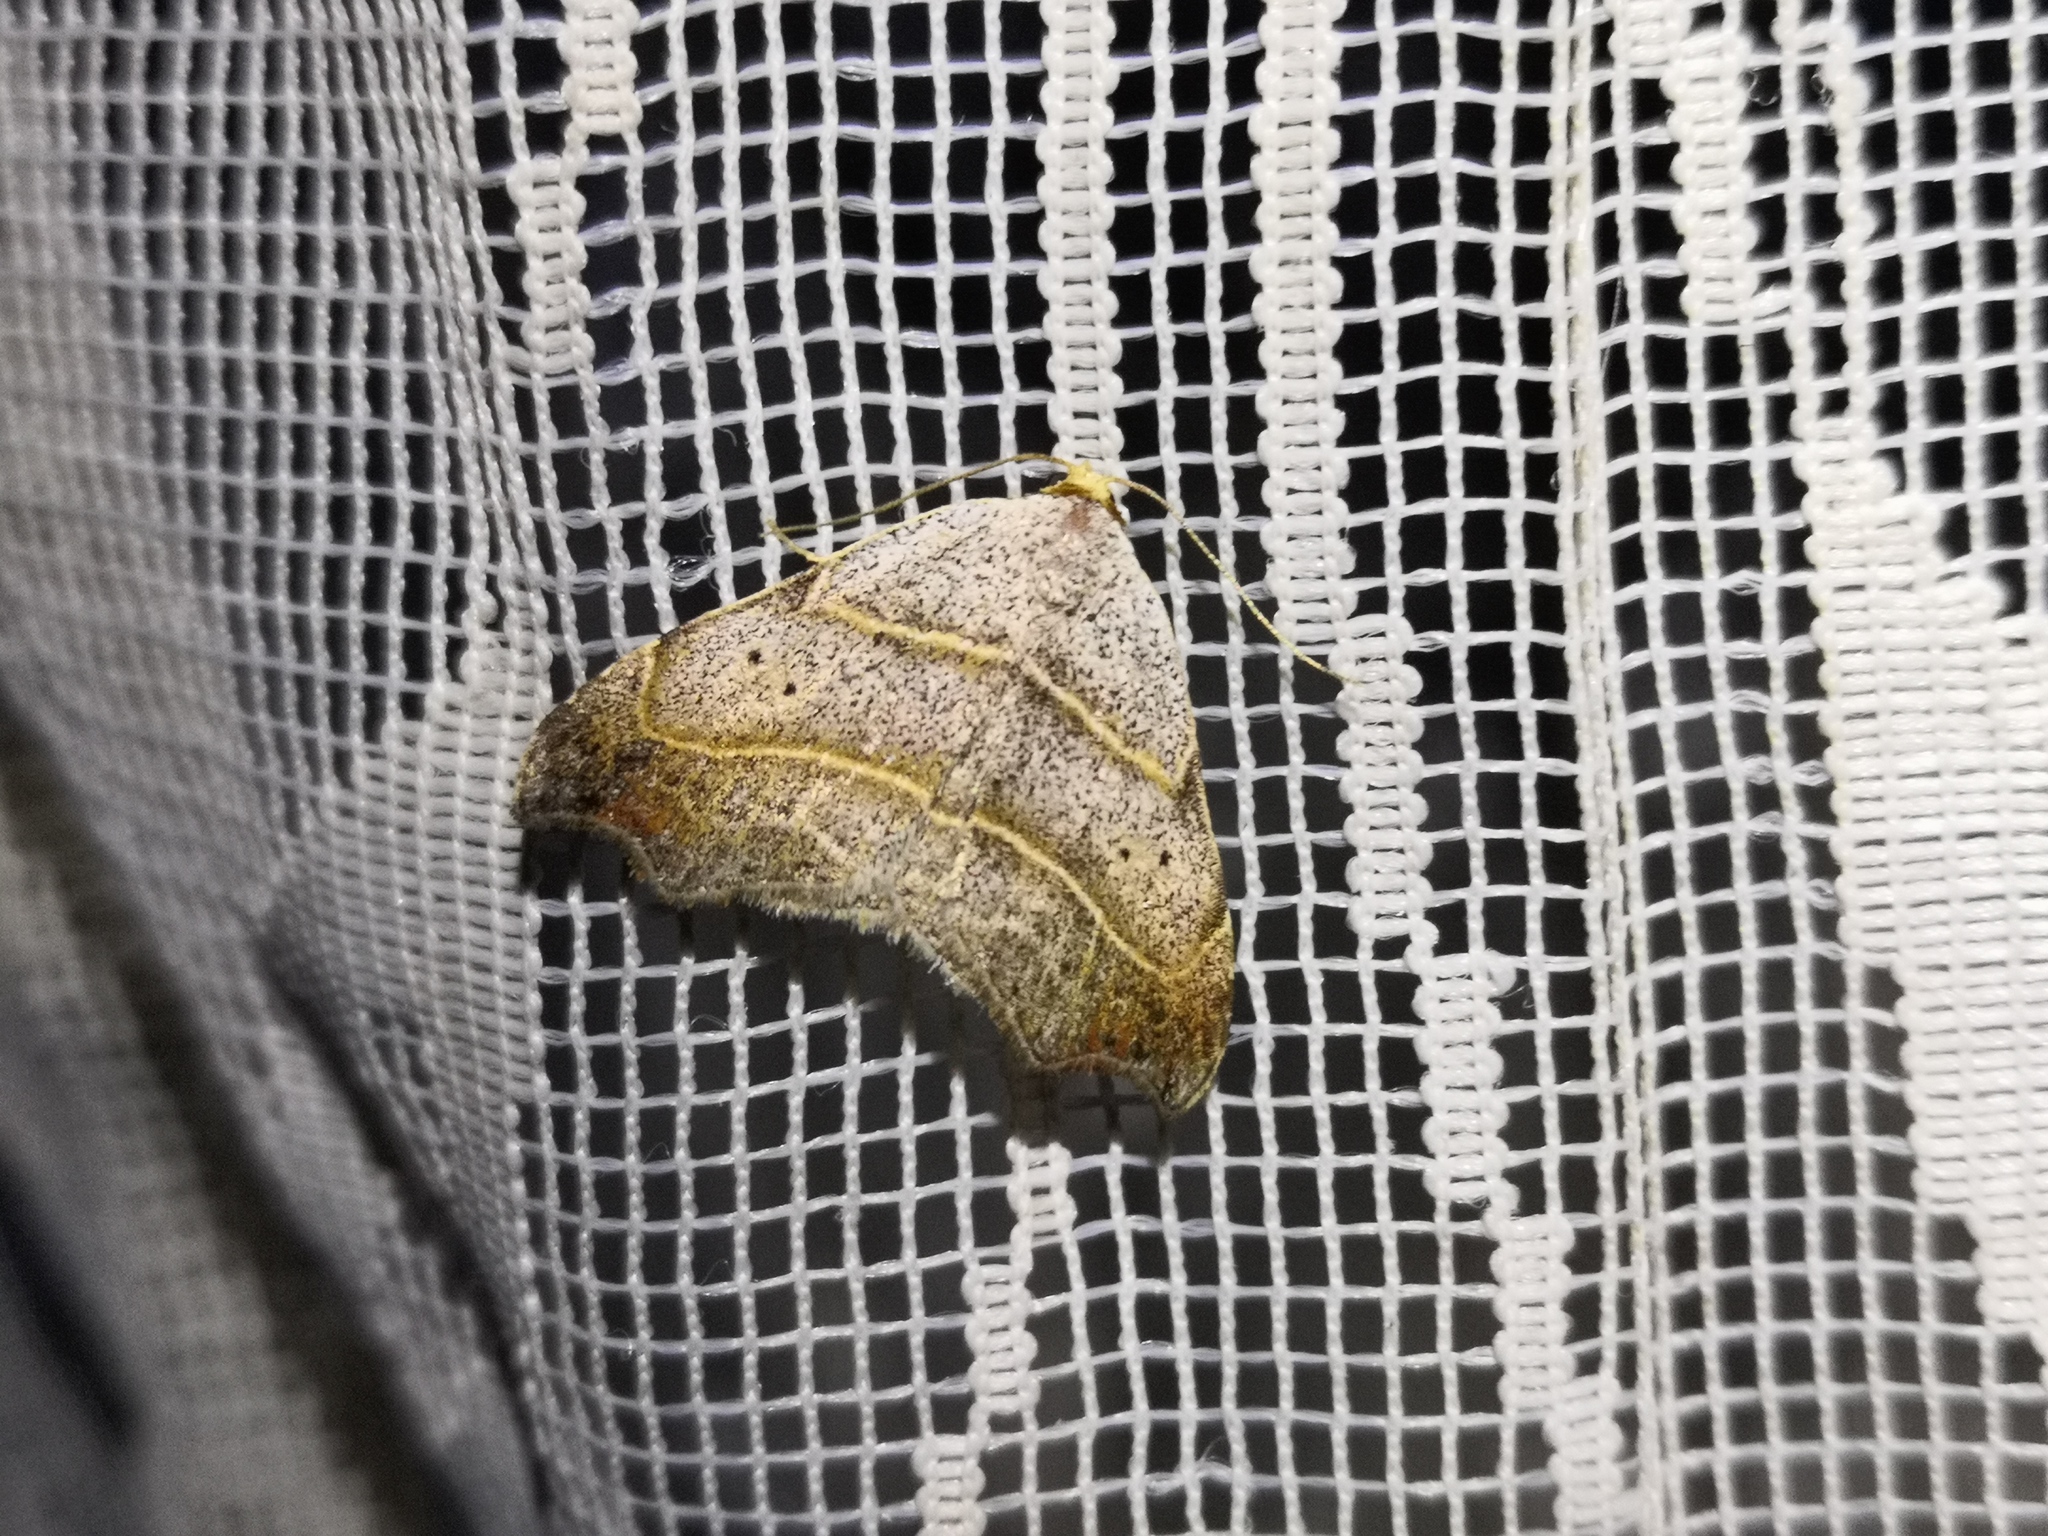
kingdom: Animalia
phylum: Arthropoda
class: Insecta
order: Lepidoptera
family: Erebidae
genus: Laspeyria
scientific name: Laspeyria flexula
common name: Beautiful hook-tip
